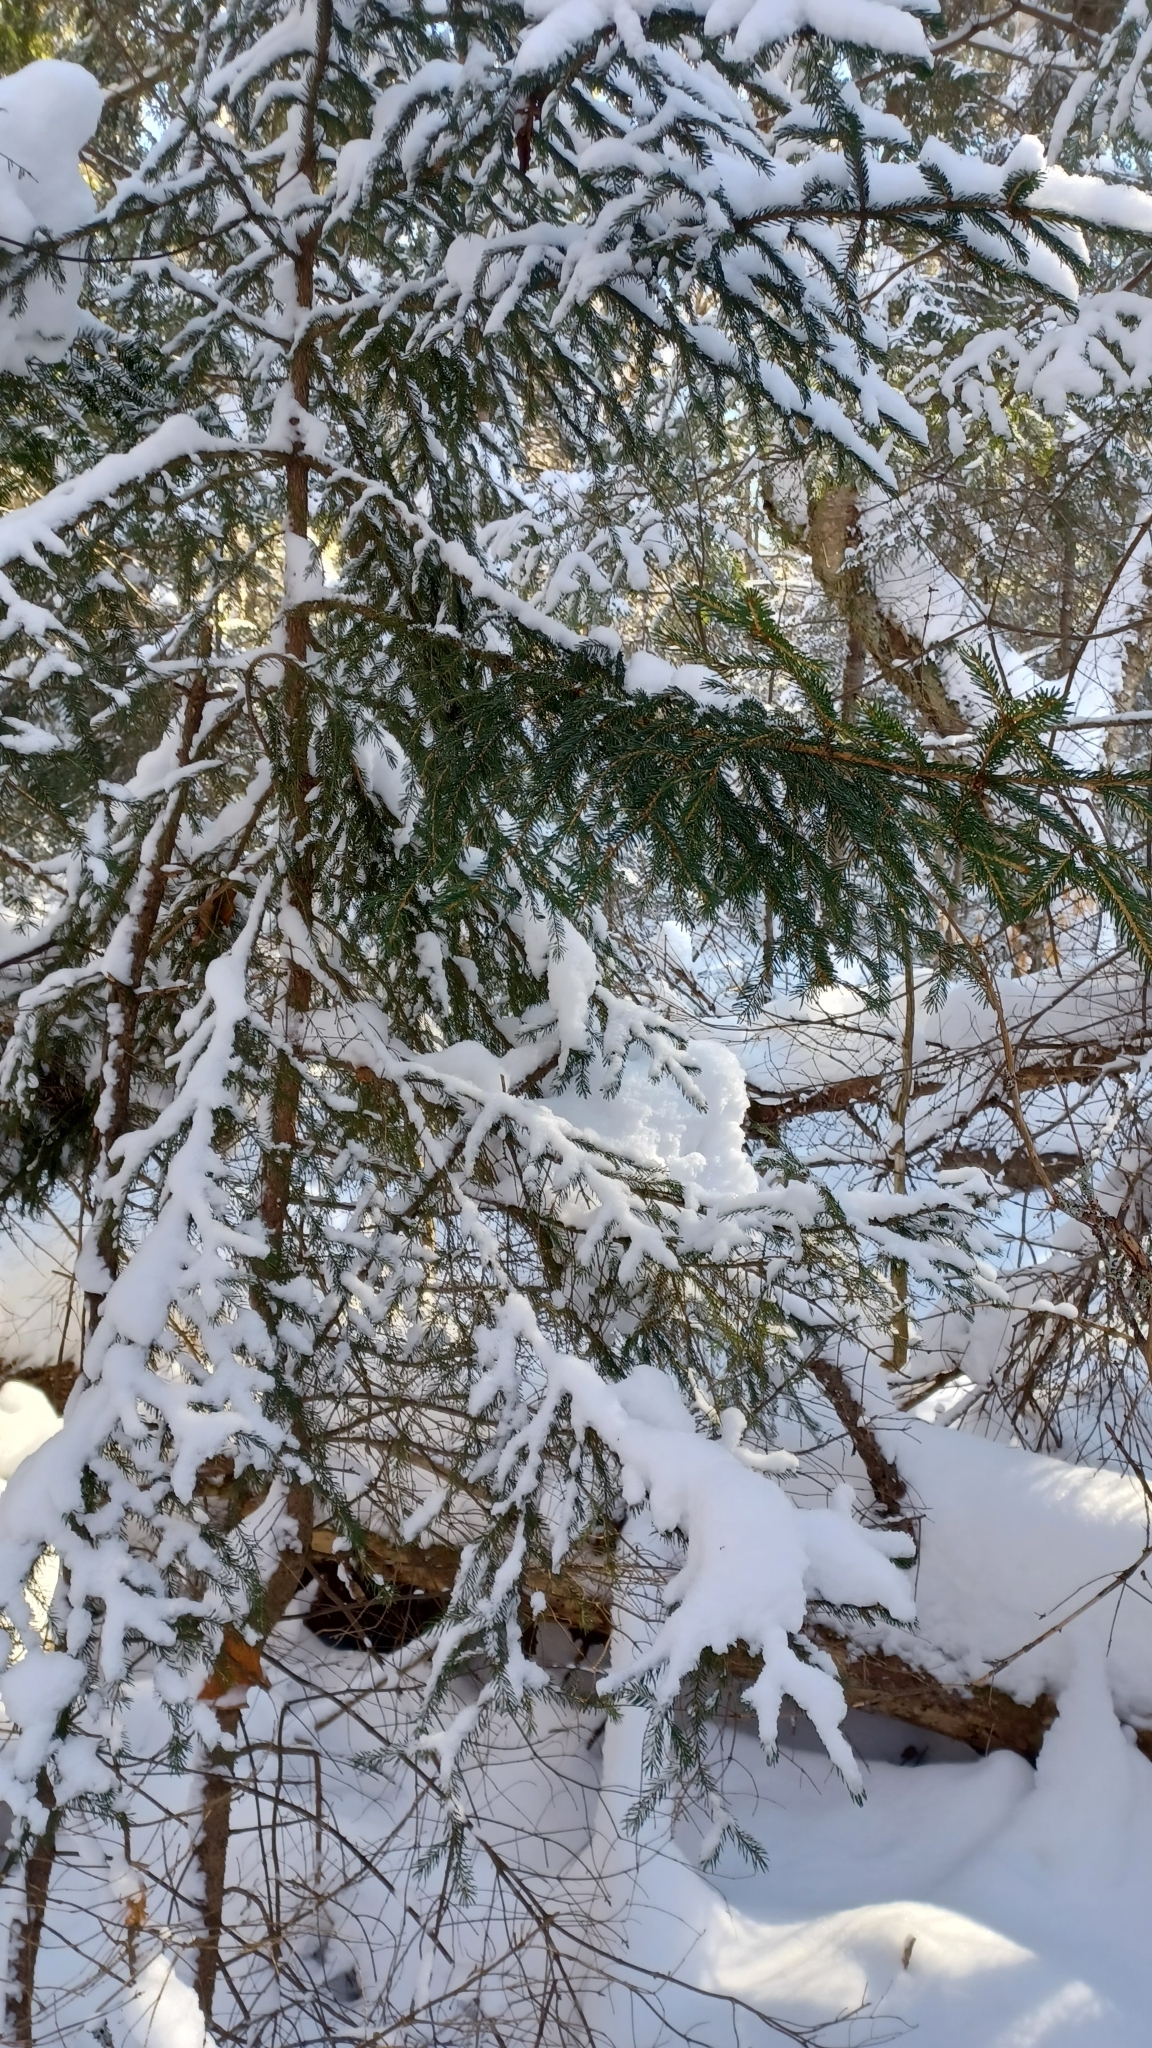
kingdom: Plantae
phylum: Tracheophyta
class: Pinopsida
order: Pinales
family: Pinaceae
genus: Picea
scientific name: Picea rubens
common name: Red spruce
